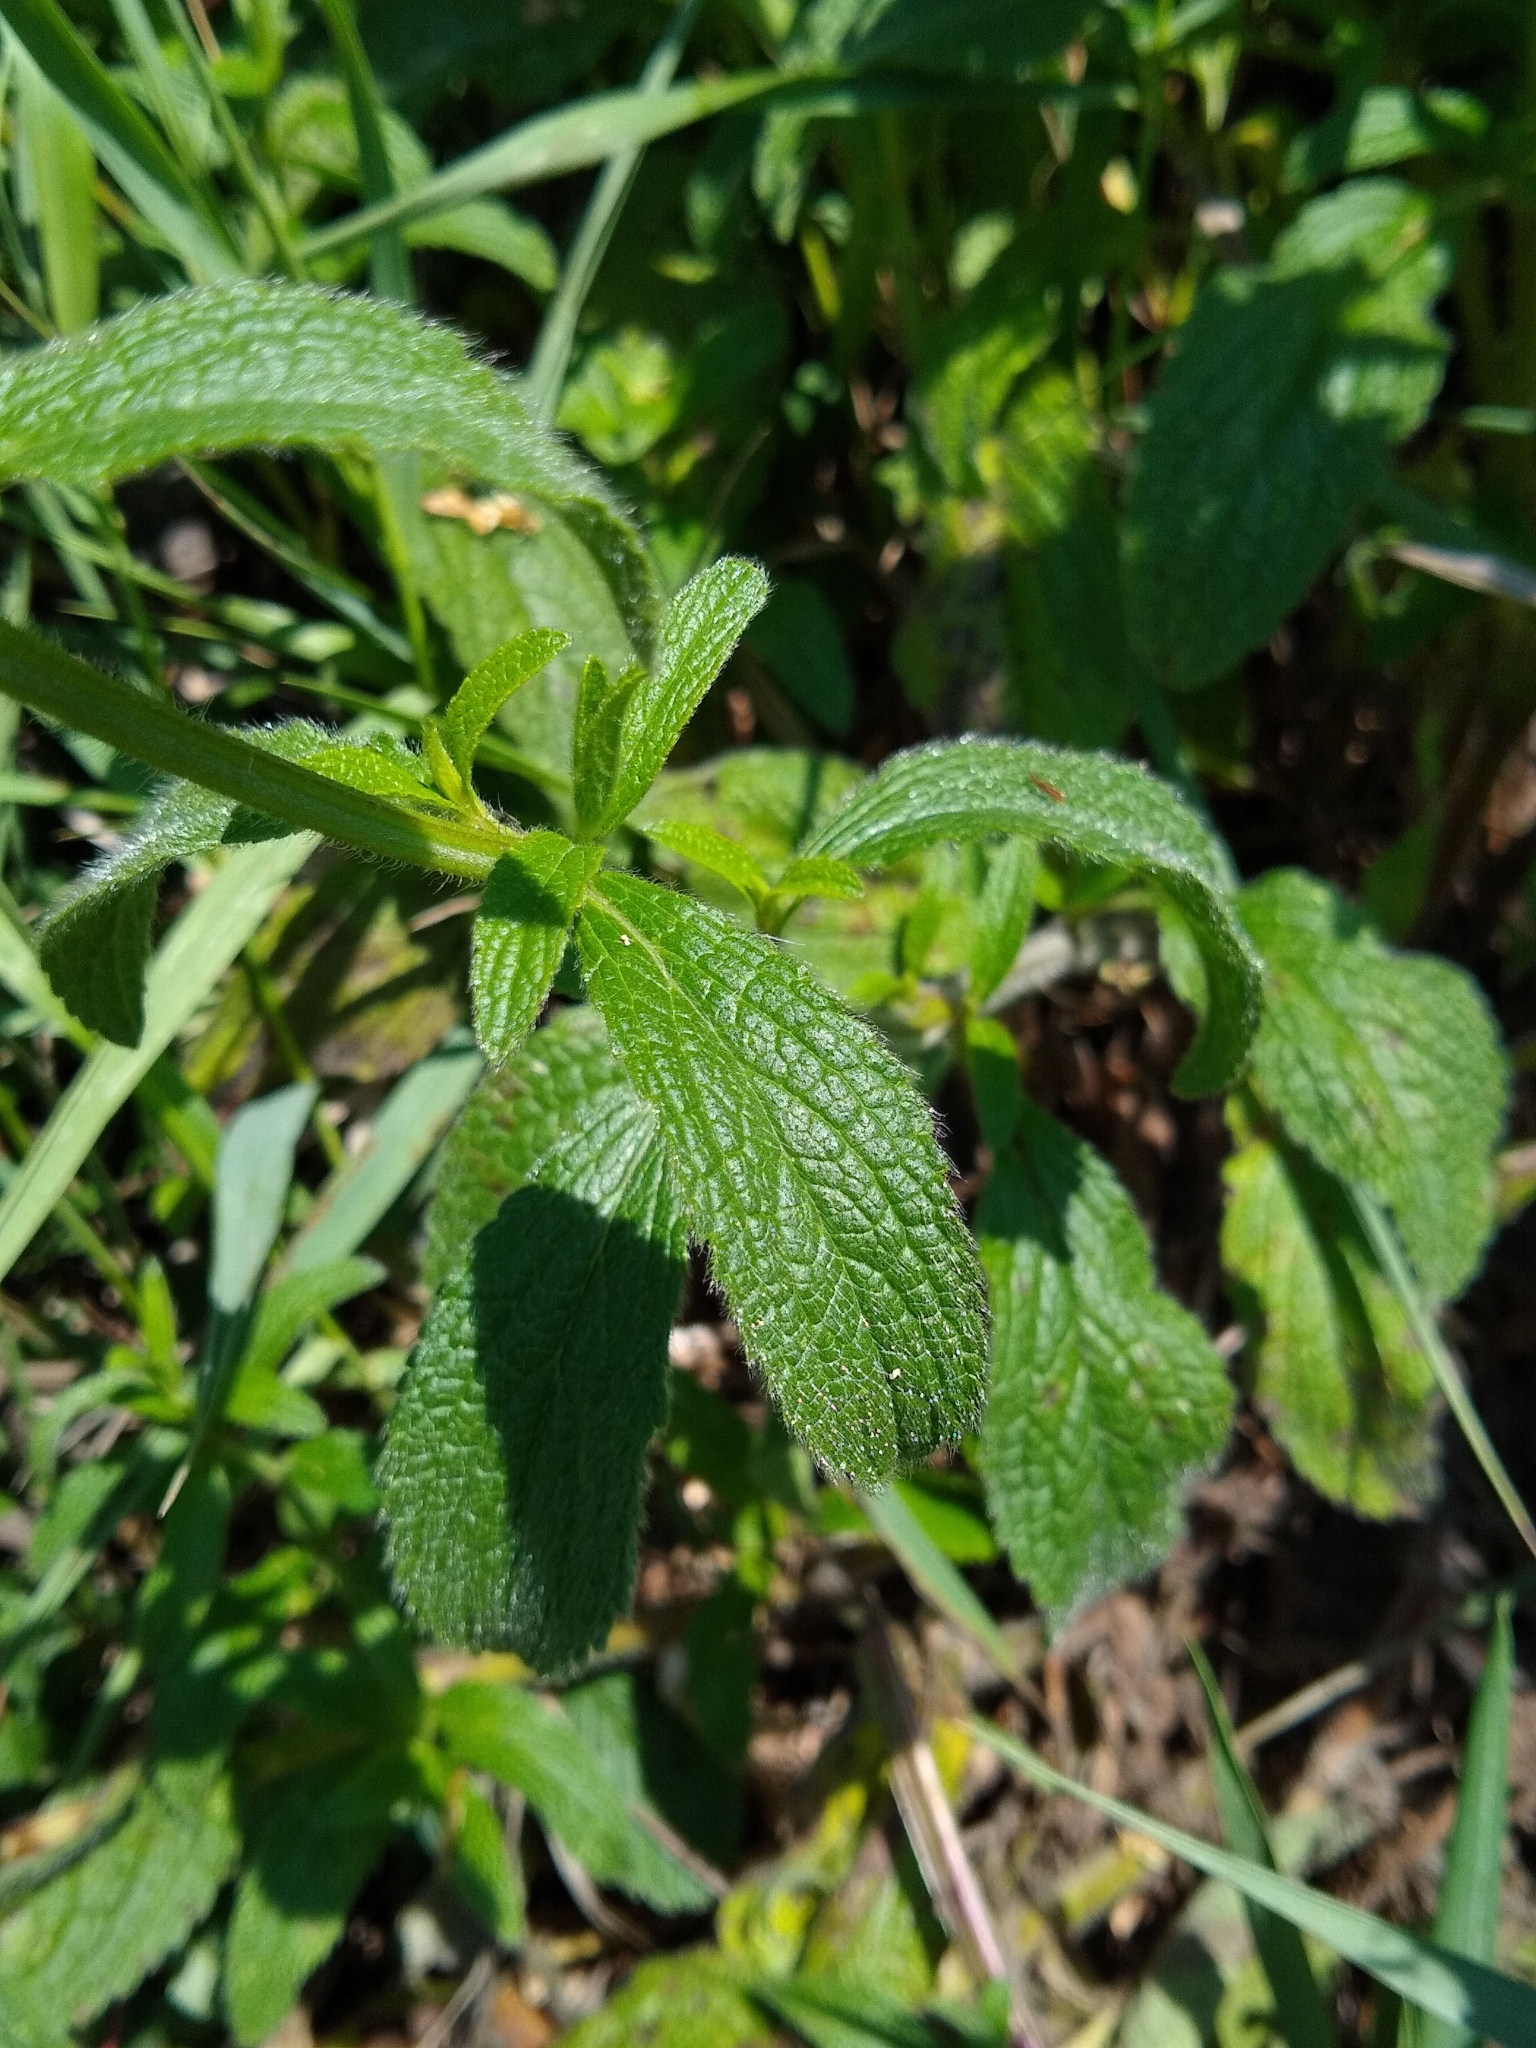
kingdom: Plantae
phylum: Tracheophyta
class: Magnoliopsida
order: Lamiales
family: Lamiaceae
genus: Stachys
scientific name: Stachys recta
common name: Perennial yellow-woundwort
